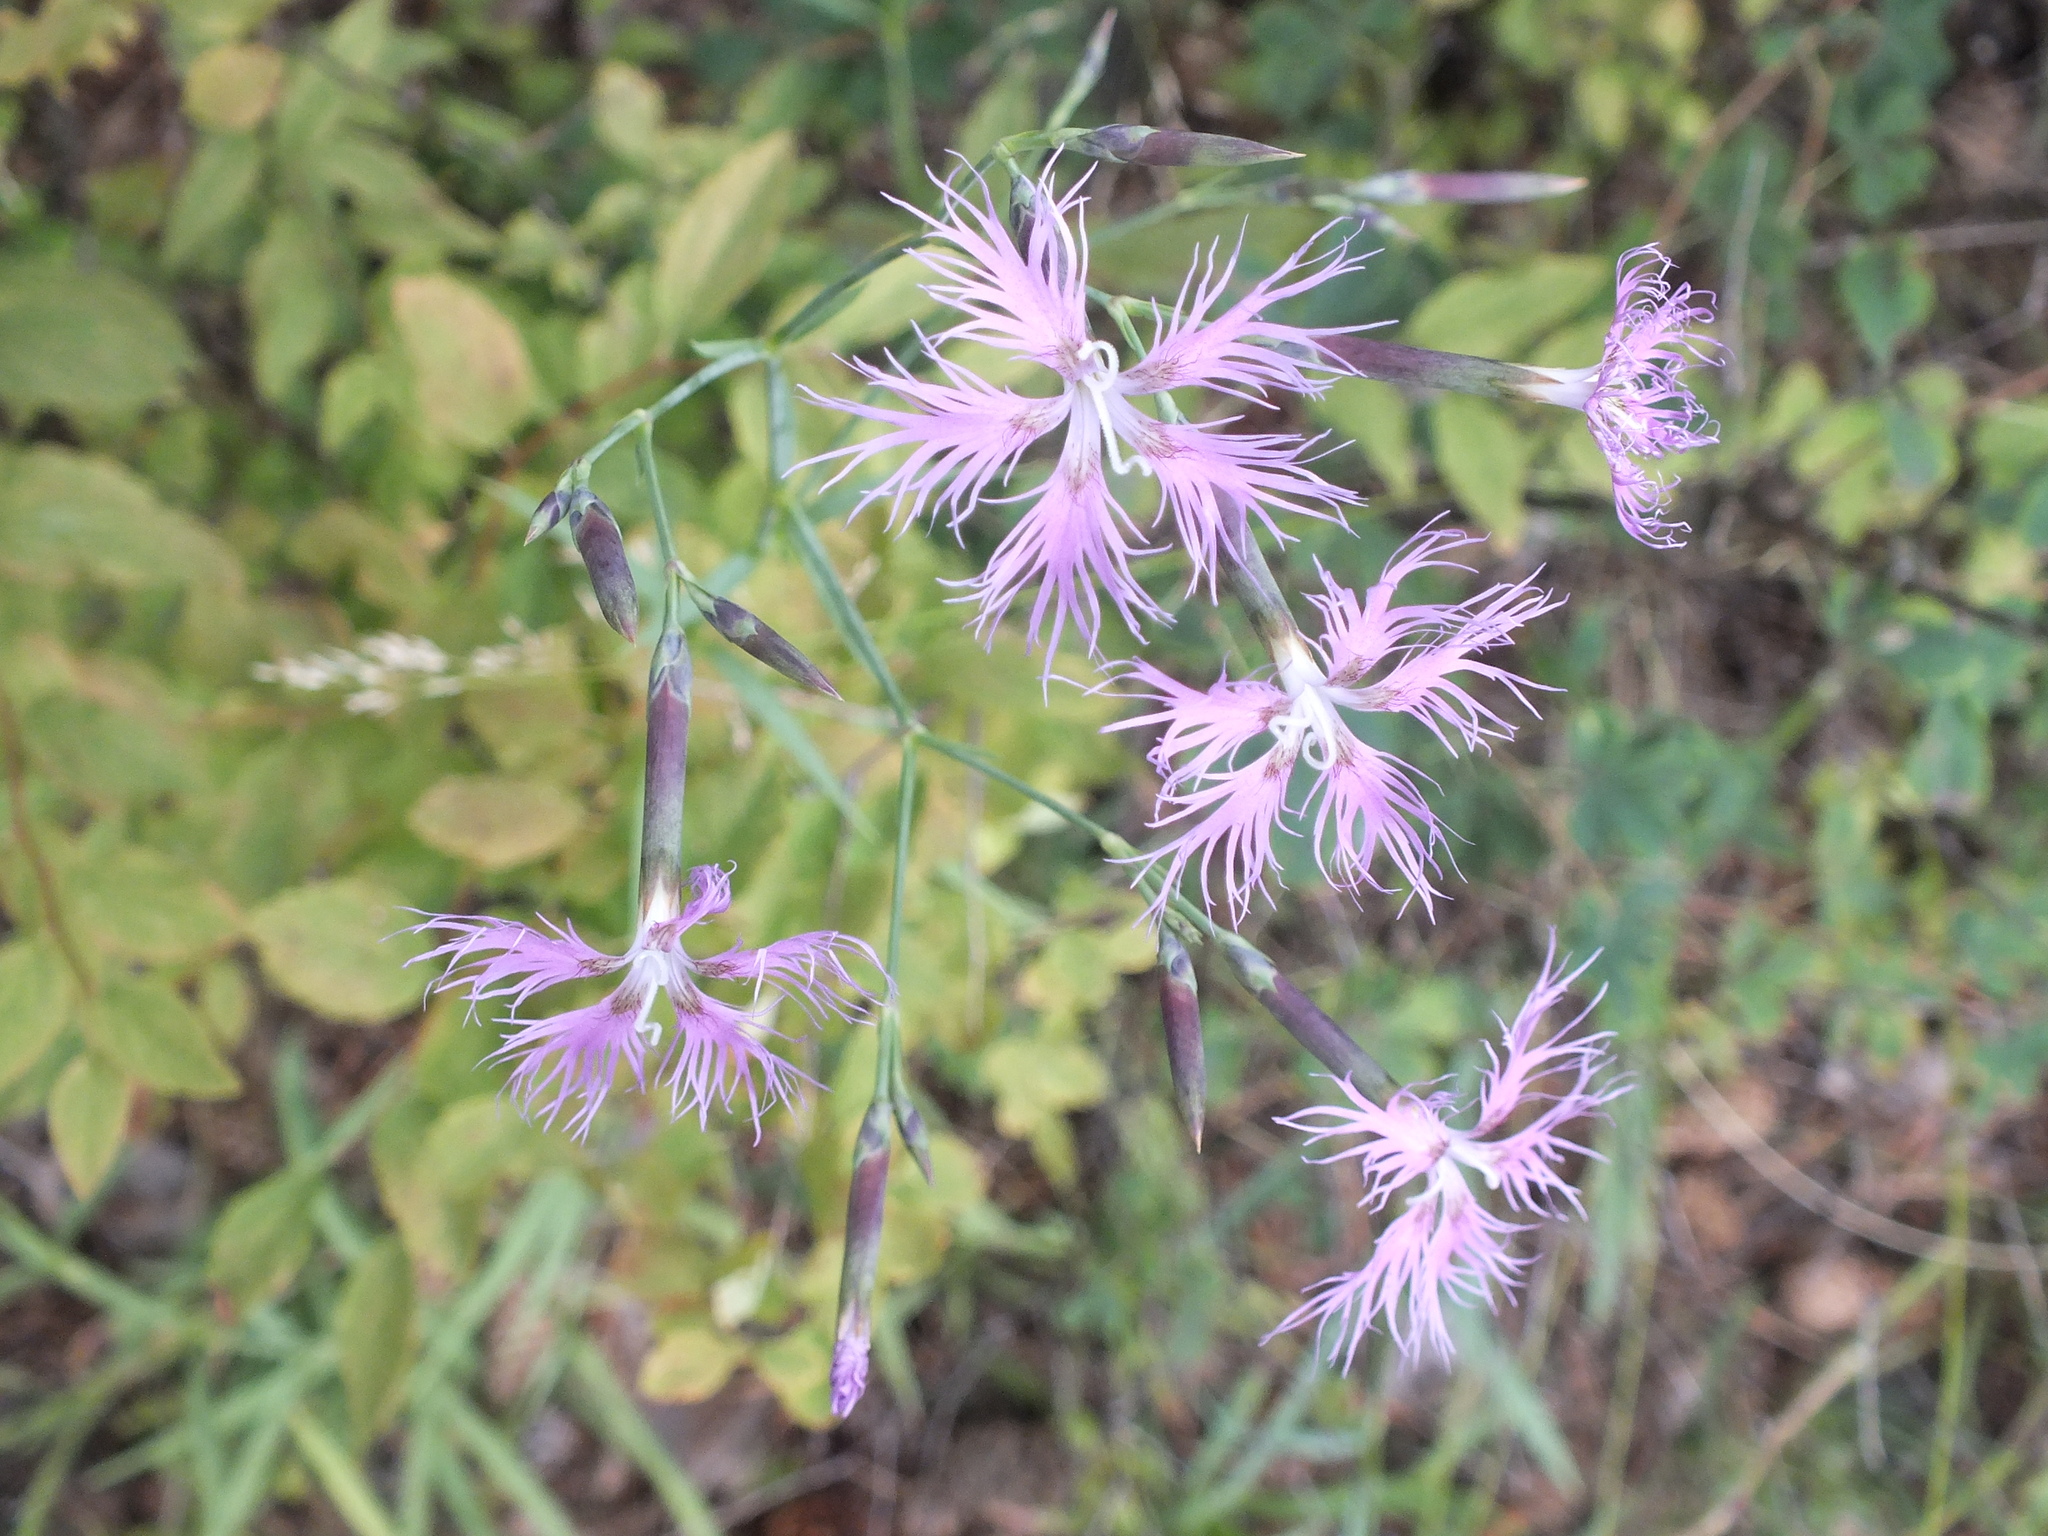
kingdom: Plantae
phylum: Tracheophyta
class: Magnoliopsida
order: Caryophyllales
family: Caryophyllaceae
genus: Dianthus
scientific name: Dianthus superbus
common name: Fringed pink
